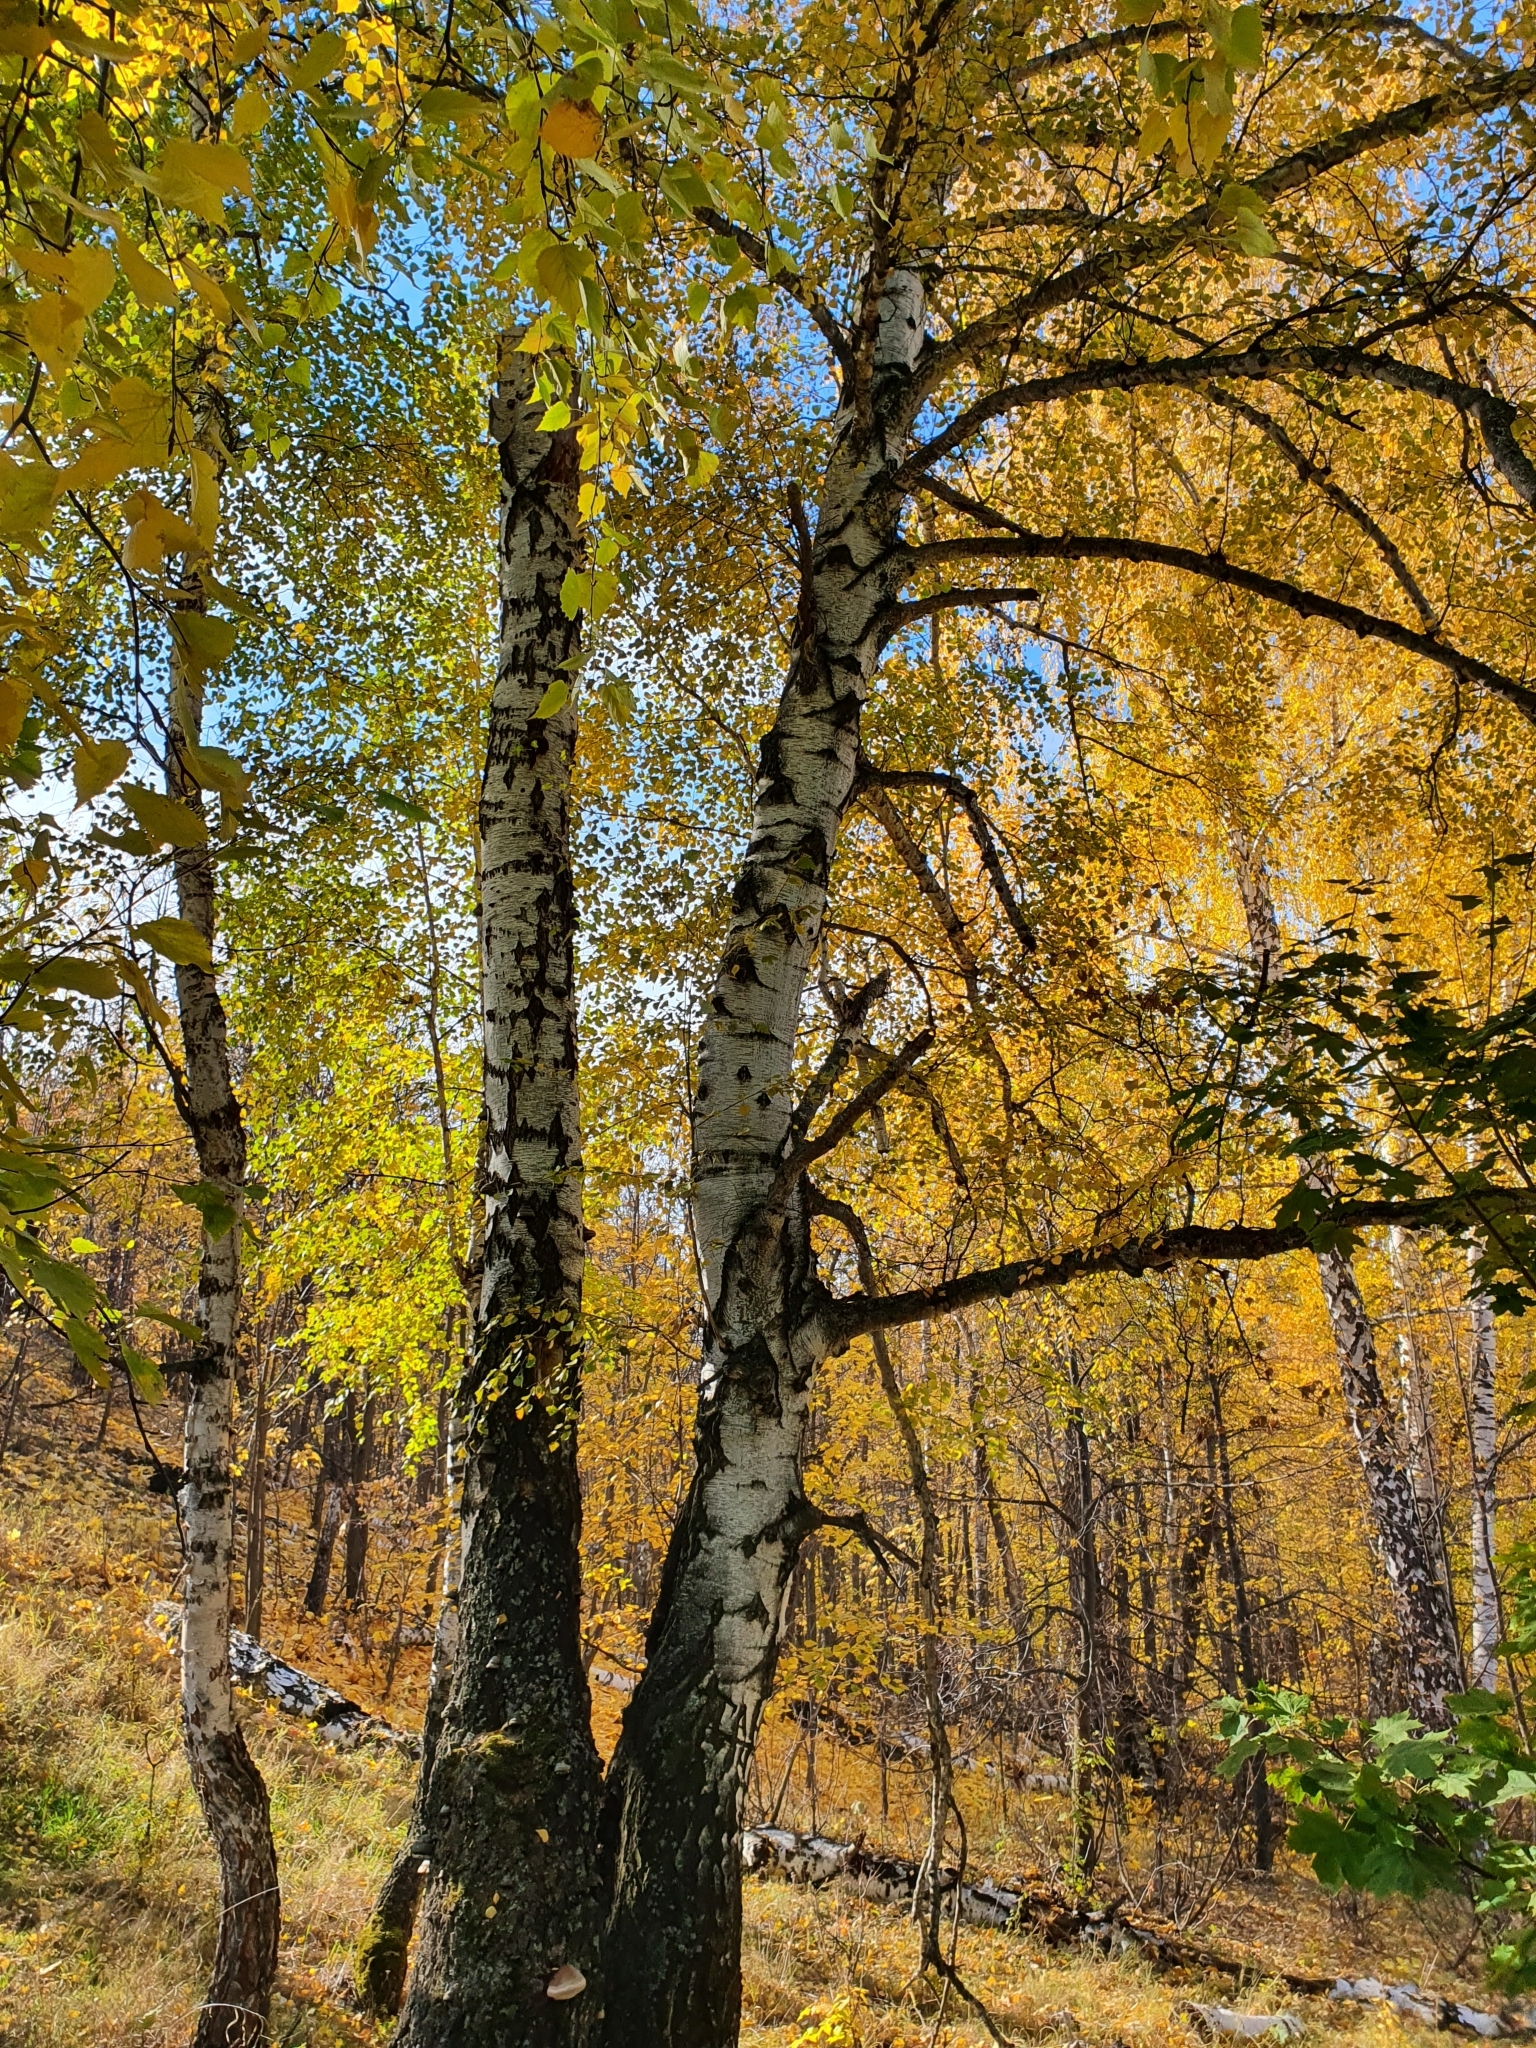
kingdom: Plantae
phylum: Tracheophyta
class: Magnoliopsida
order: Fagales
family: Betulaceae
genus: Betula
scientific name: Betula pendula
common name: Silver birch
